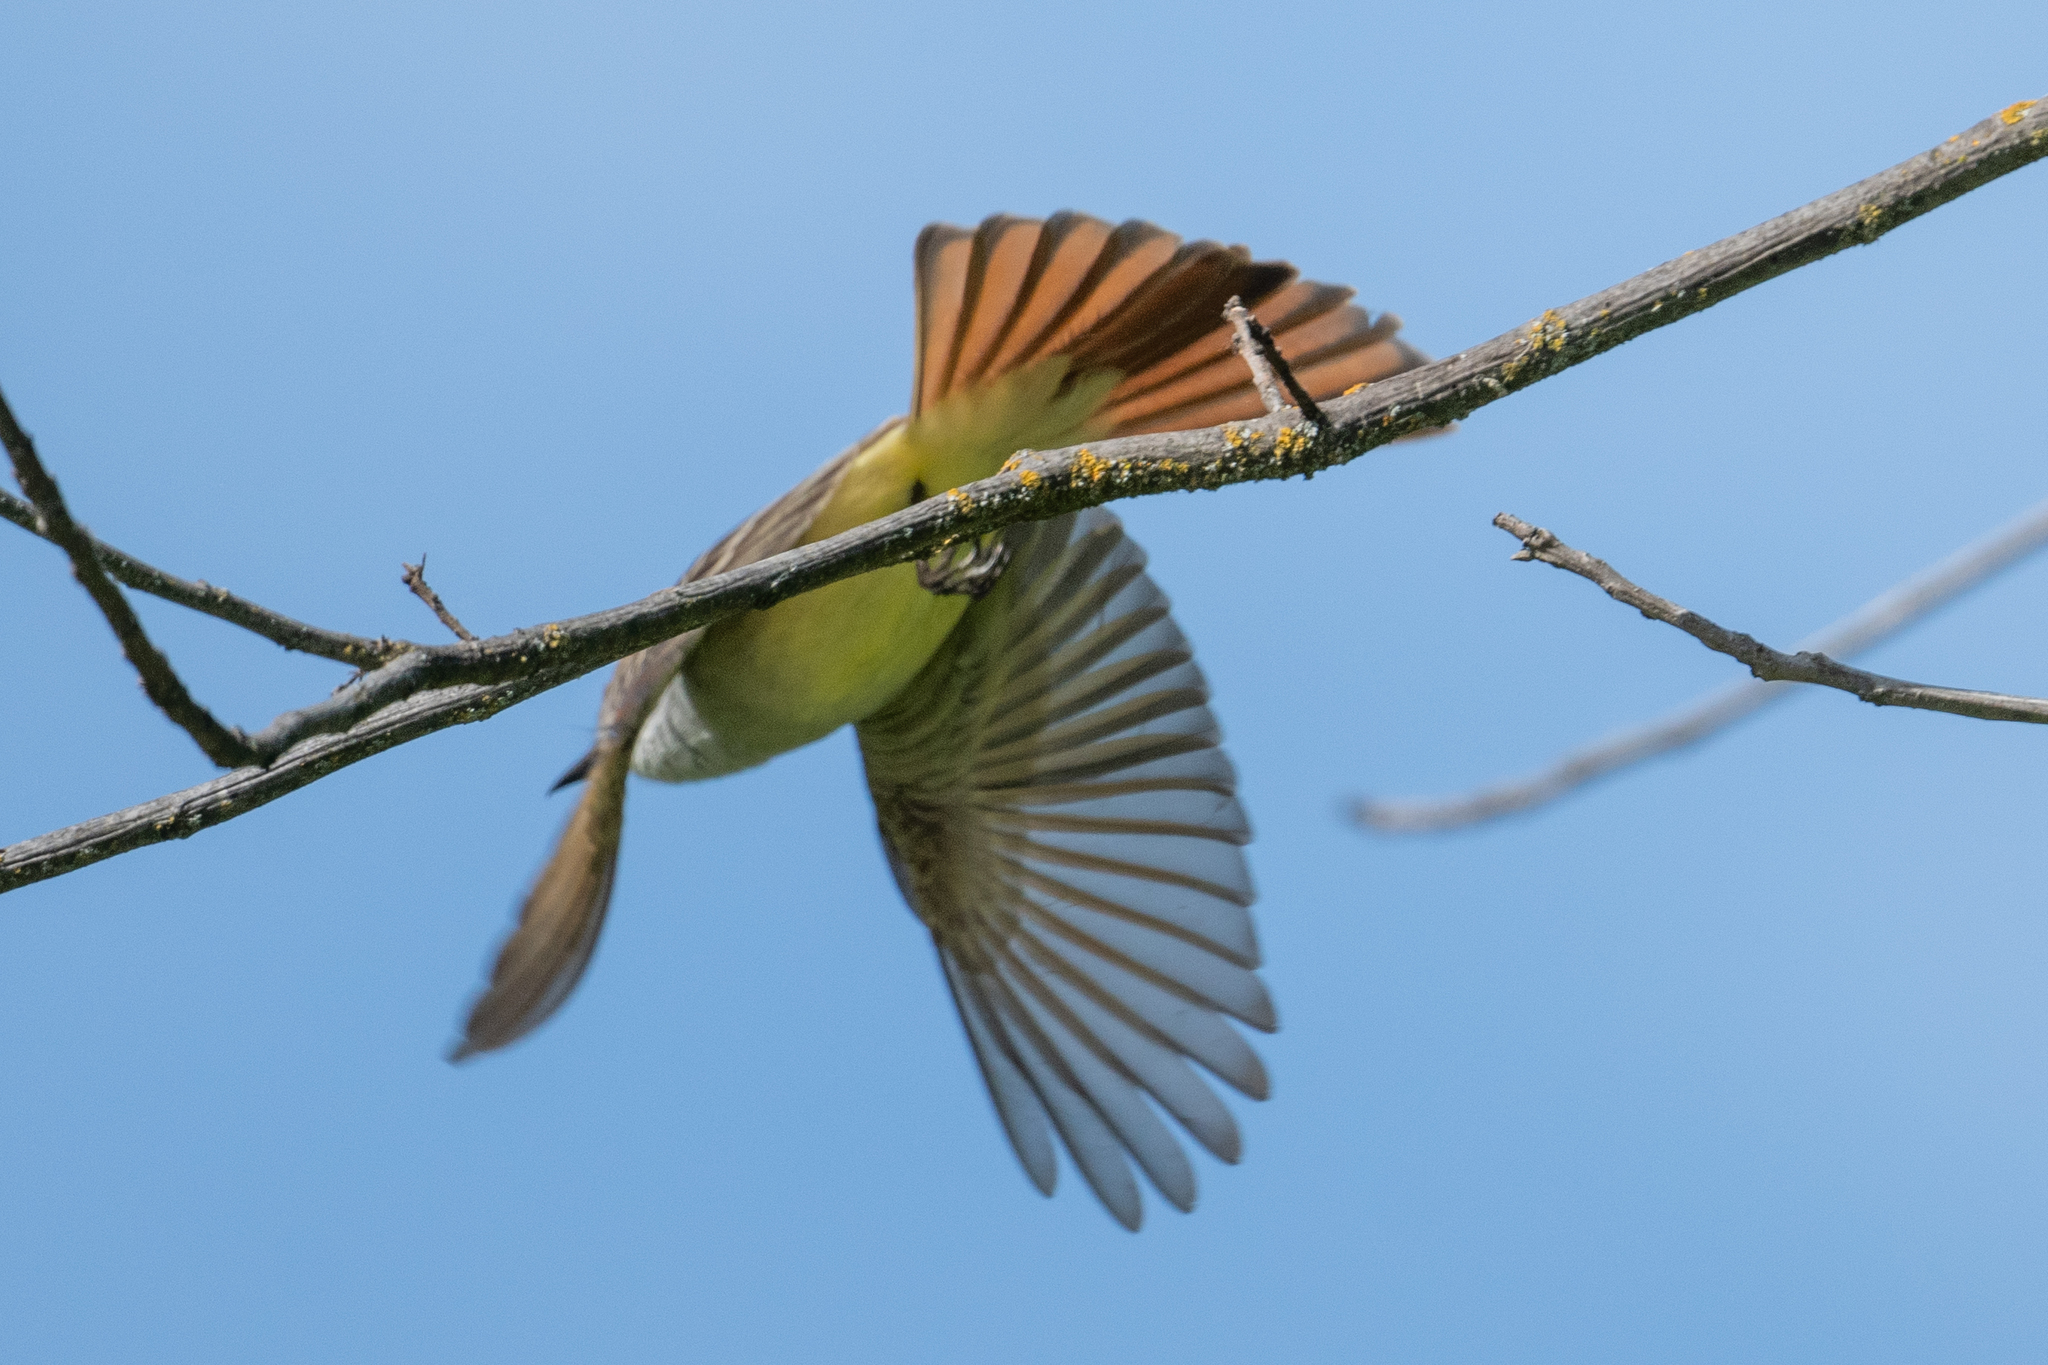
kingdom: Animalia
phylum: Chordata
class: Aves
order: Passeriformes
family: Tyrannidae
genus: Myiarchus
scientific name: Myiarchus cinerascens
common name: Ash-throated flycatcher
